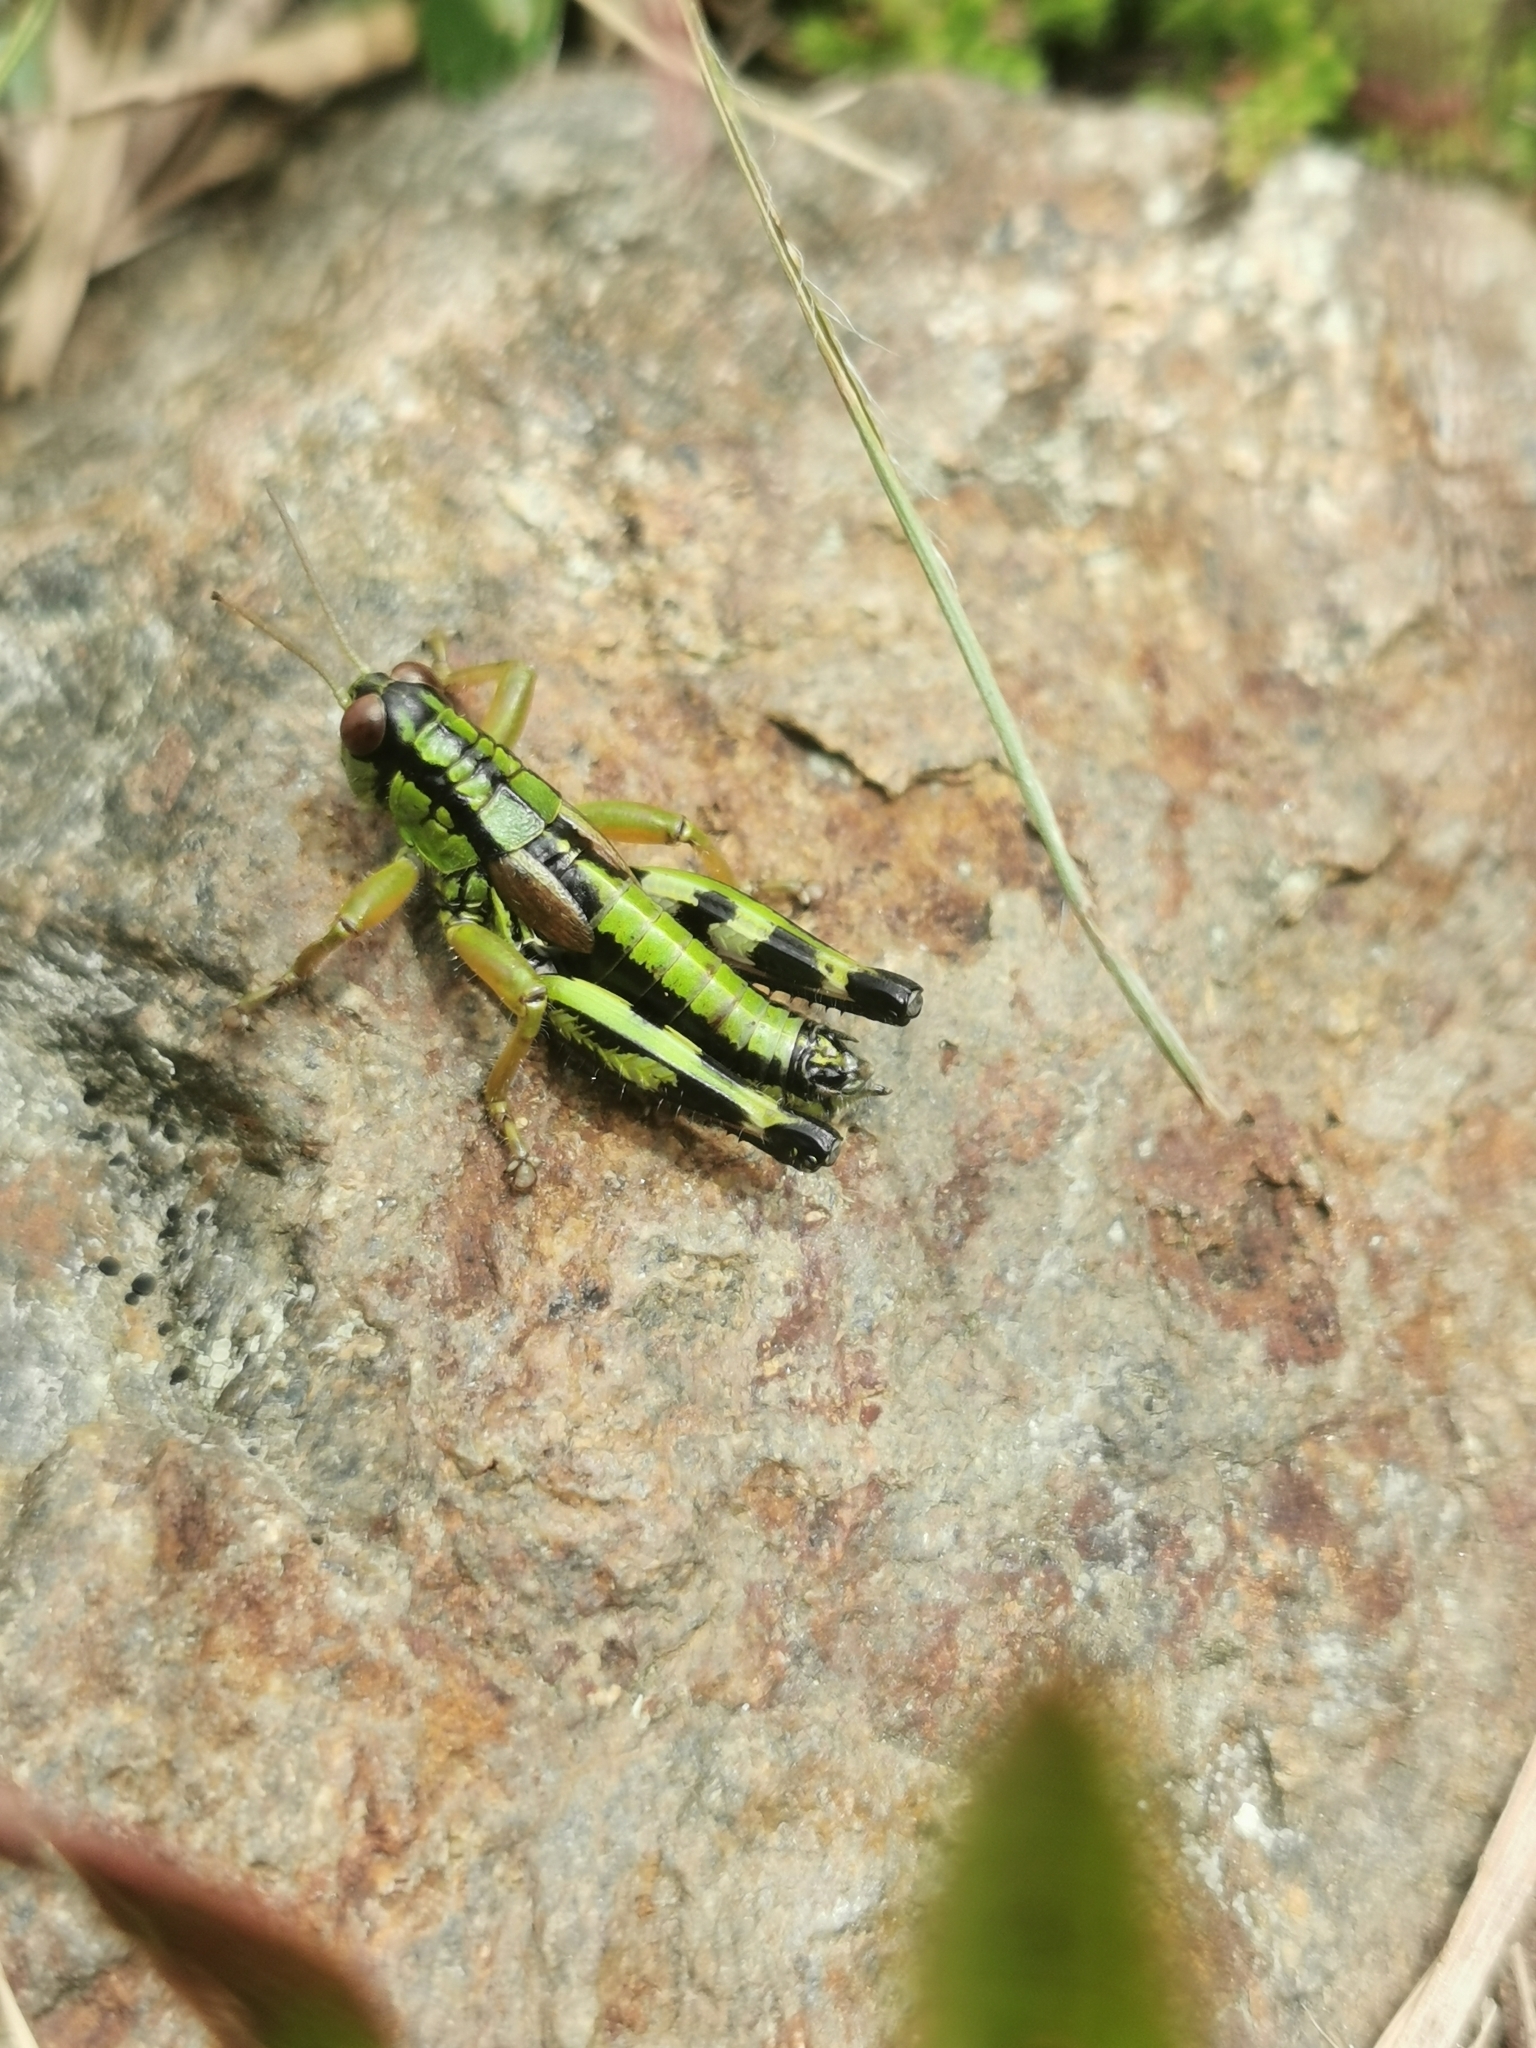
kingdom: Animalia
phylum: Arthropoda
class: Insecta
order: Orthoptera
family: Acrididae
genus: Miramella
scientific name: Miramella carinthiaca
